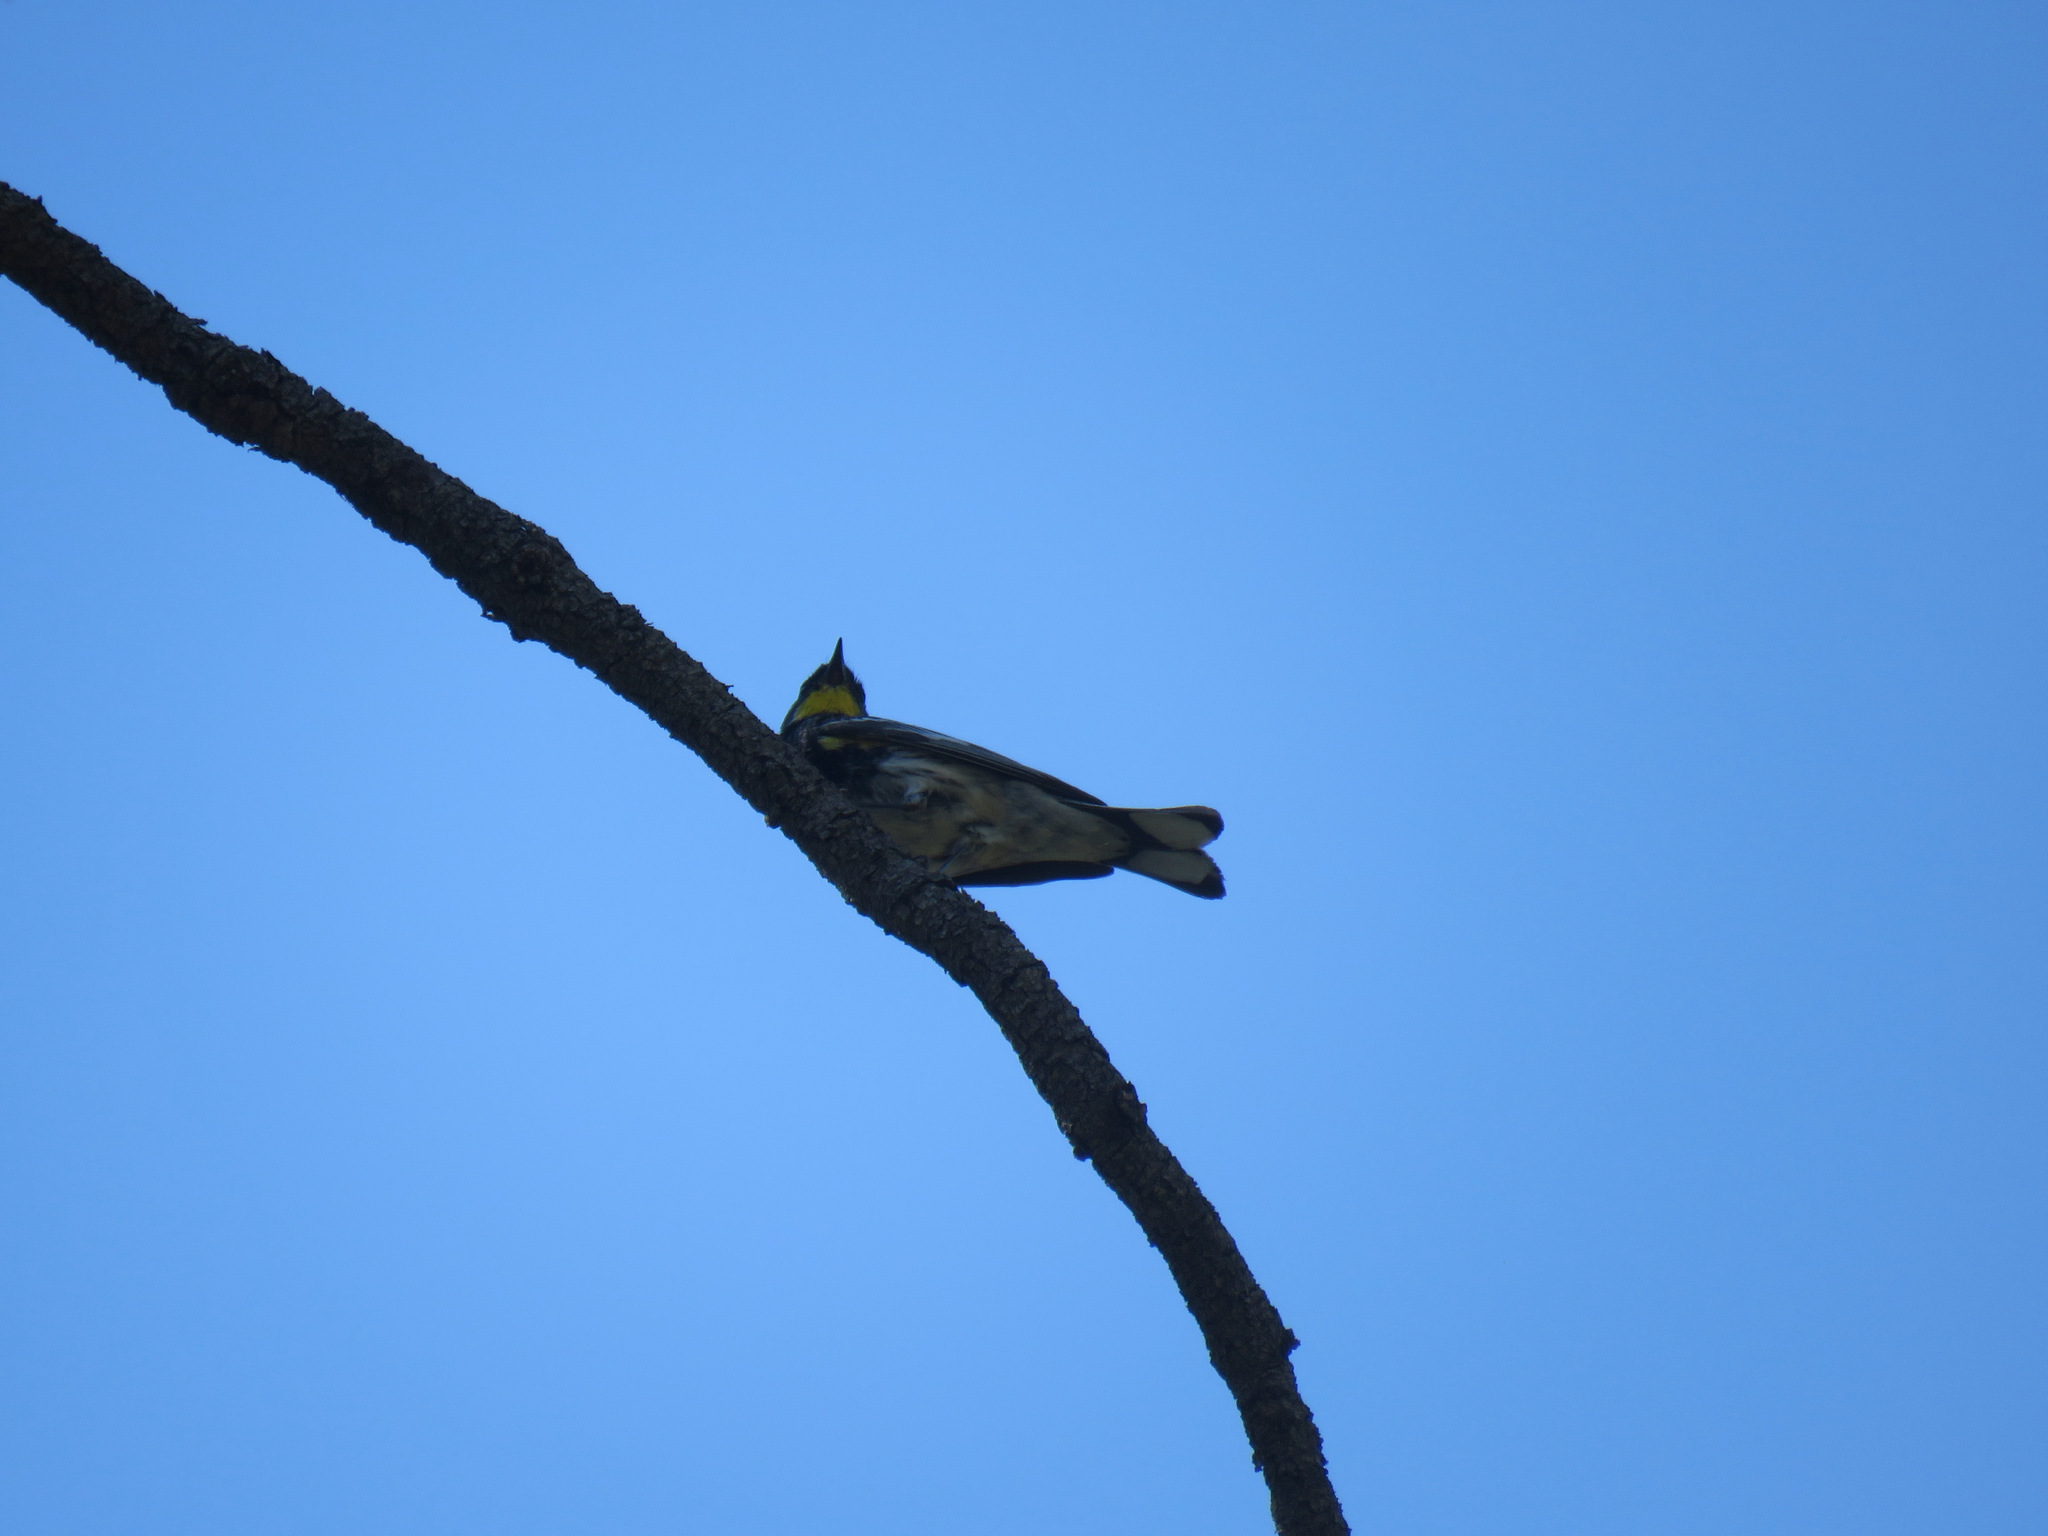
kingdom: Animalia
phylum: Chordata
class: Aves
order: Passeriformes
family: Parulidae
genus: Setophaga
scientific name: Setophaga coronata
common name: Myrtle warbler
